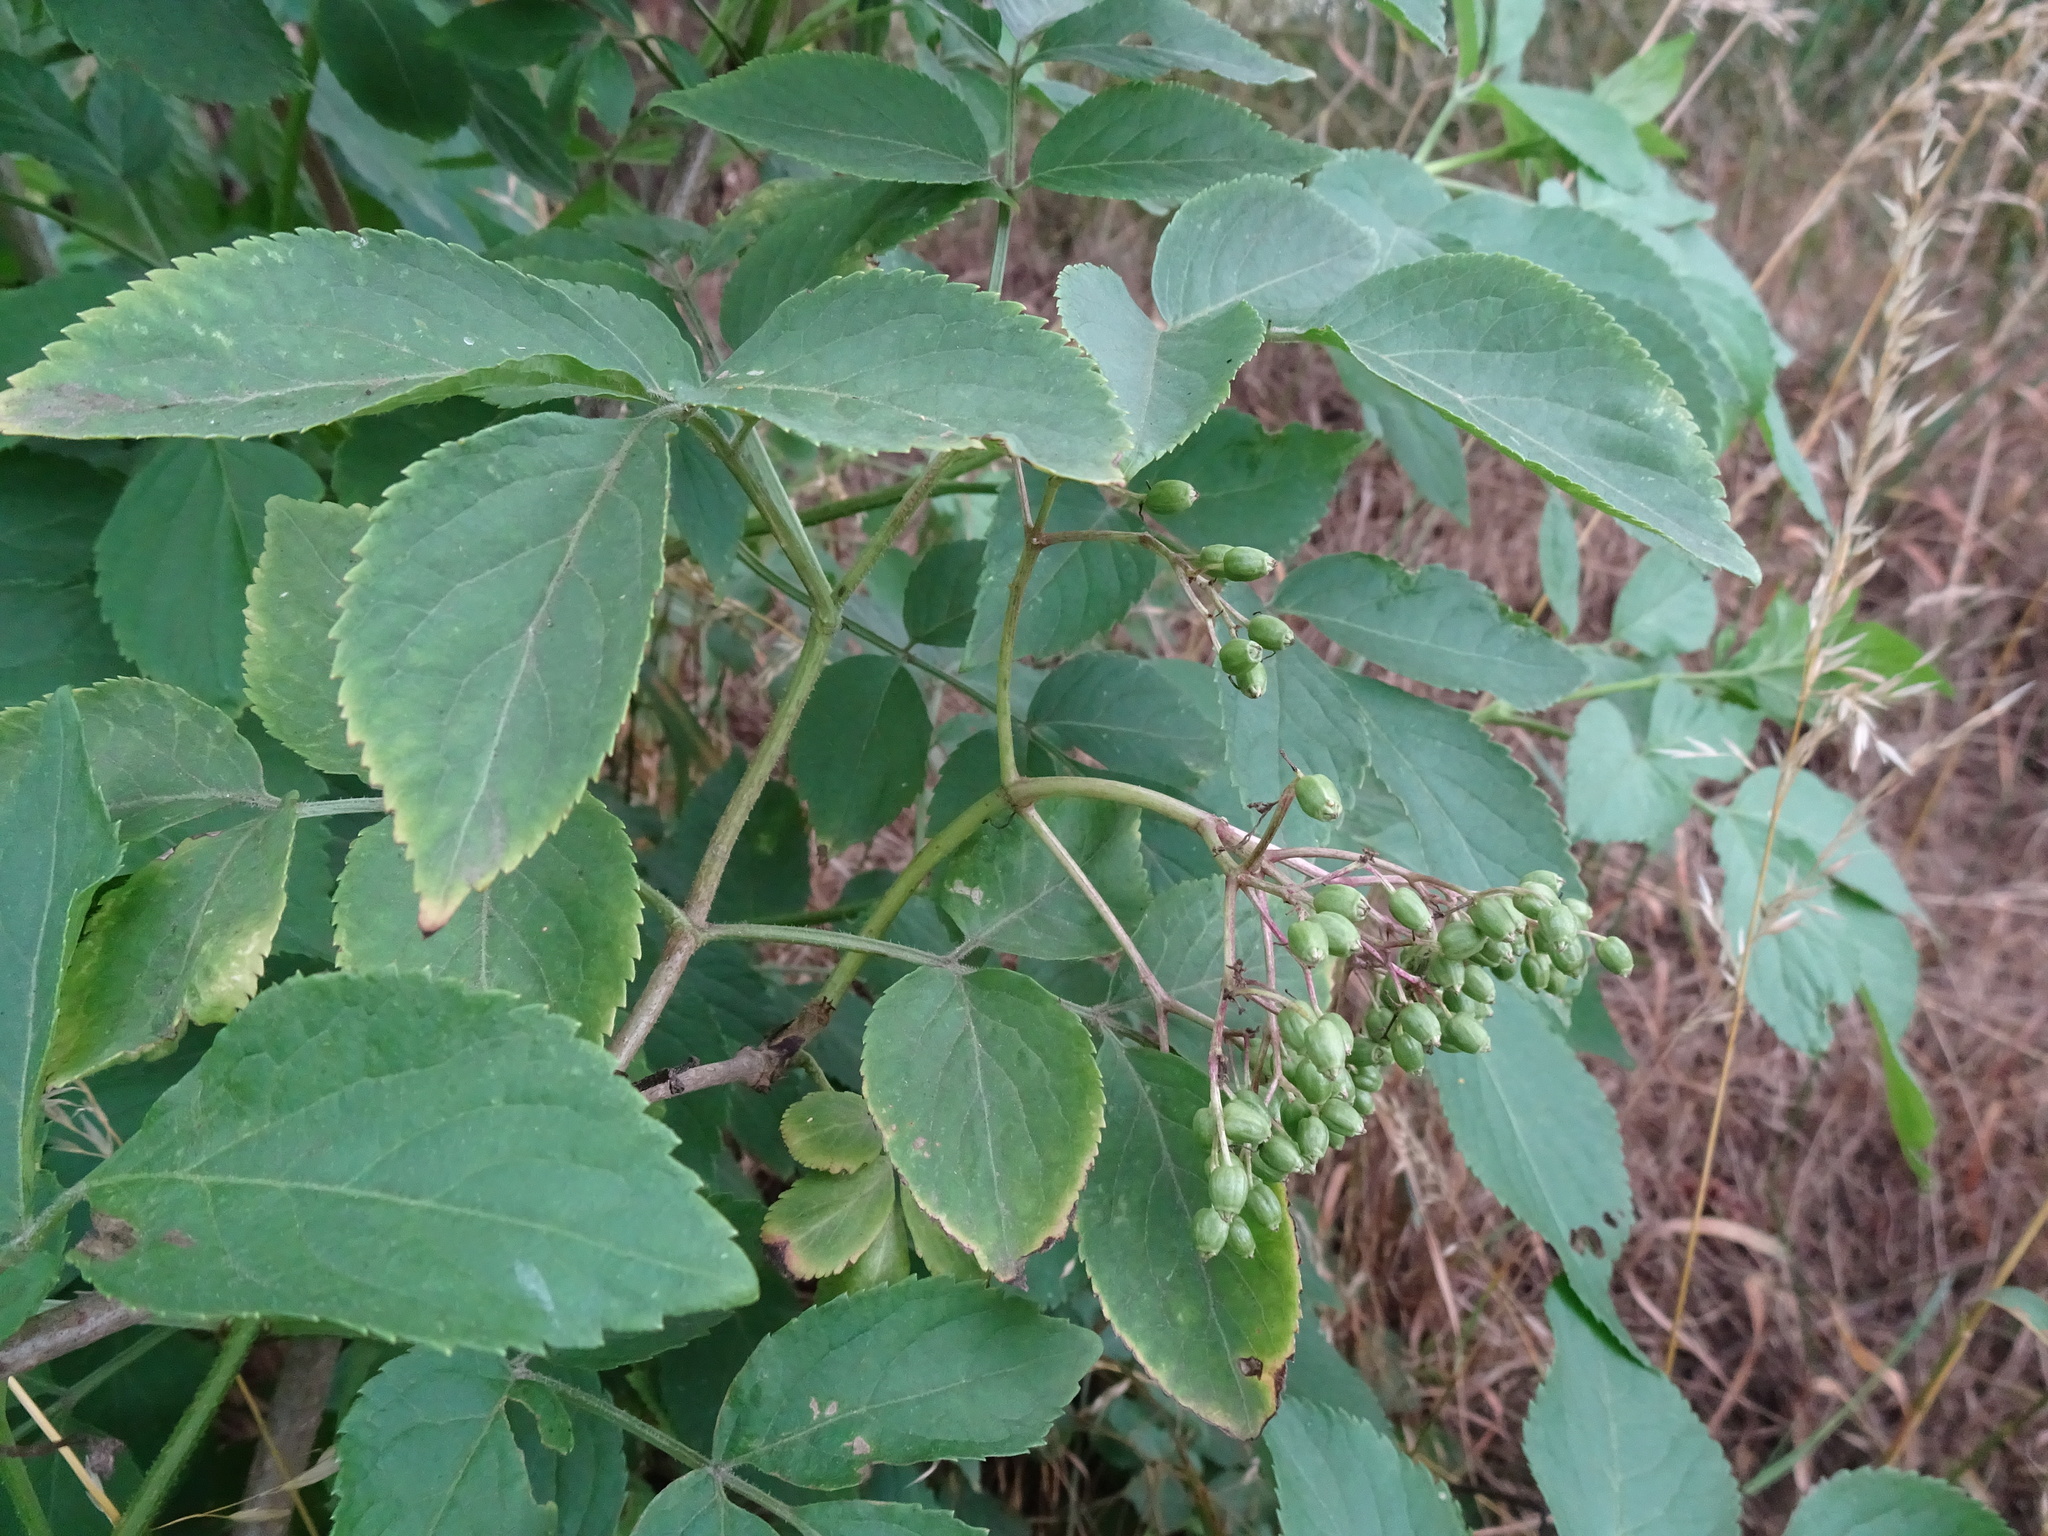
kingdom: Plantae
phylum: Tracheophyta
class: Magnoliopsida
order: Dipsacales
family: Viburnaceae
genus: Sambucus
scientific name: Sambucus nigra
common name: Elder
